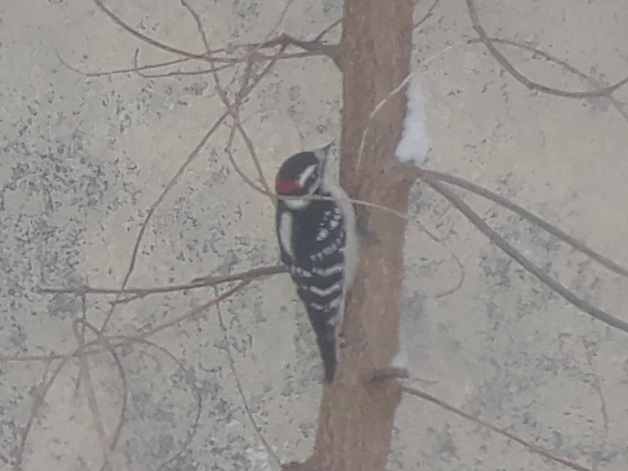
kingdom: Animalia
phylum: Chordata
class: Aves
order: Piciformes
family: Picidae
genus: Dryobates
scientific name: Dryobates pubescens
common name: Downy woodpecker
